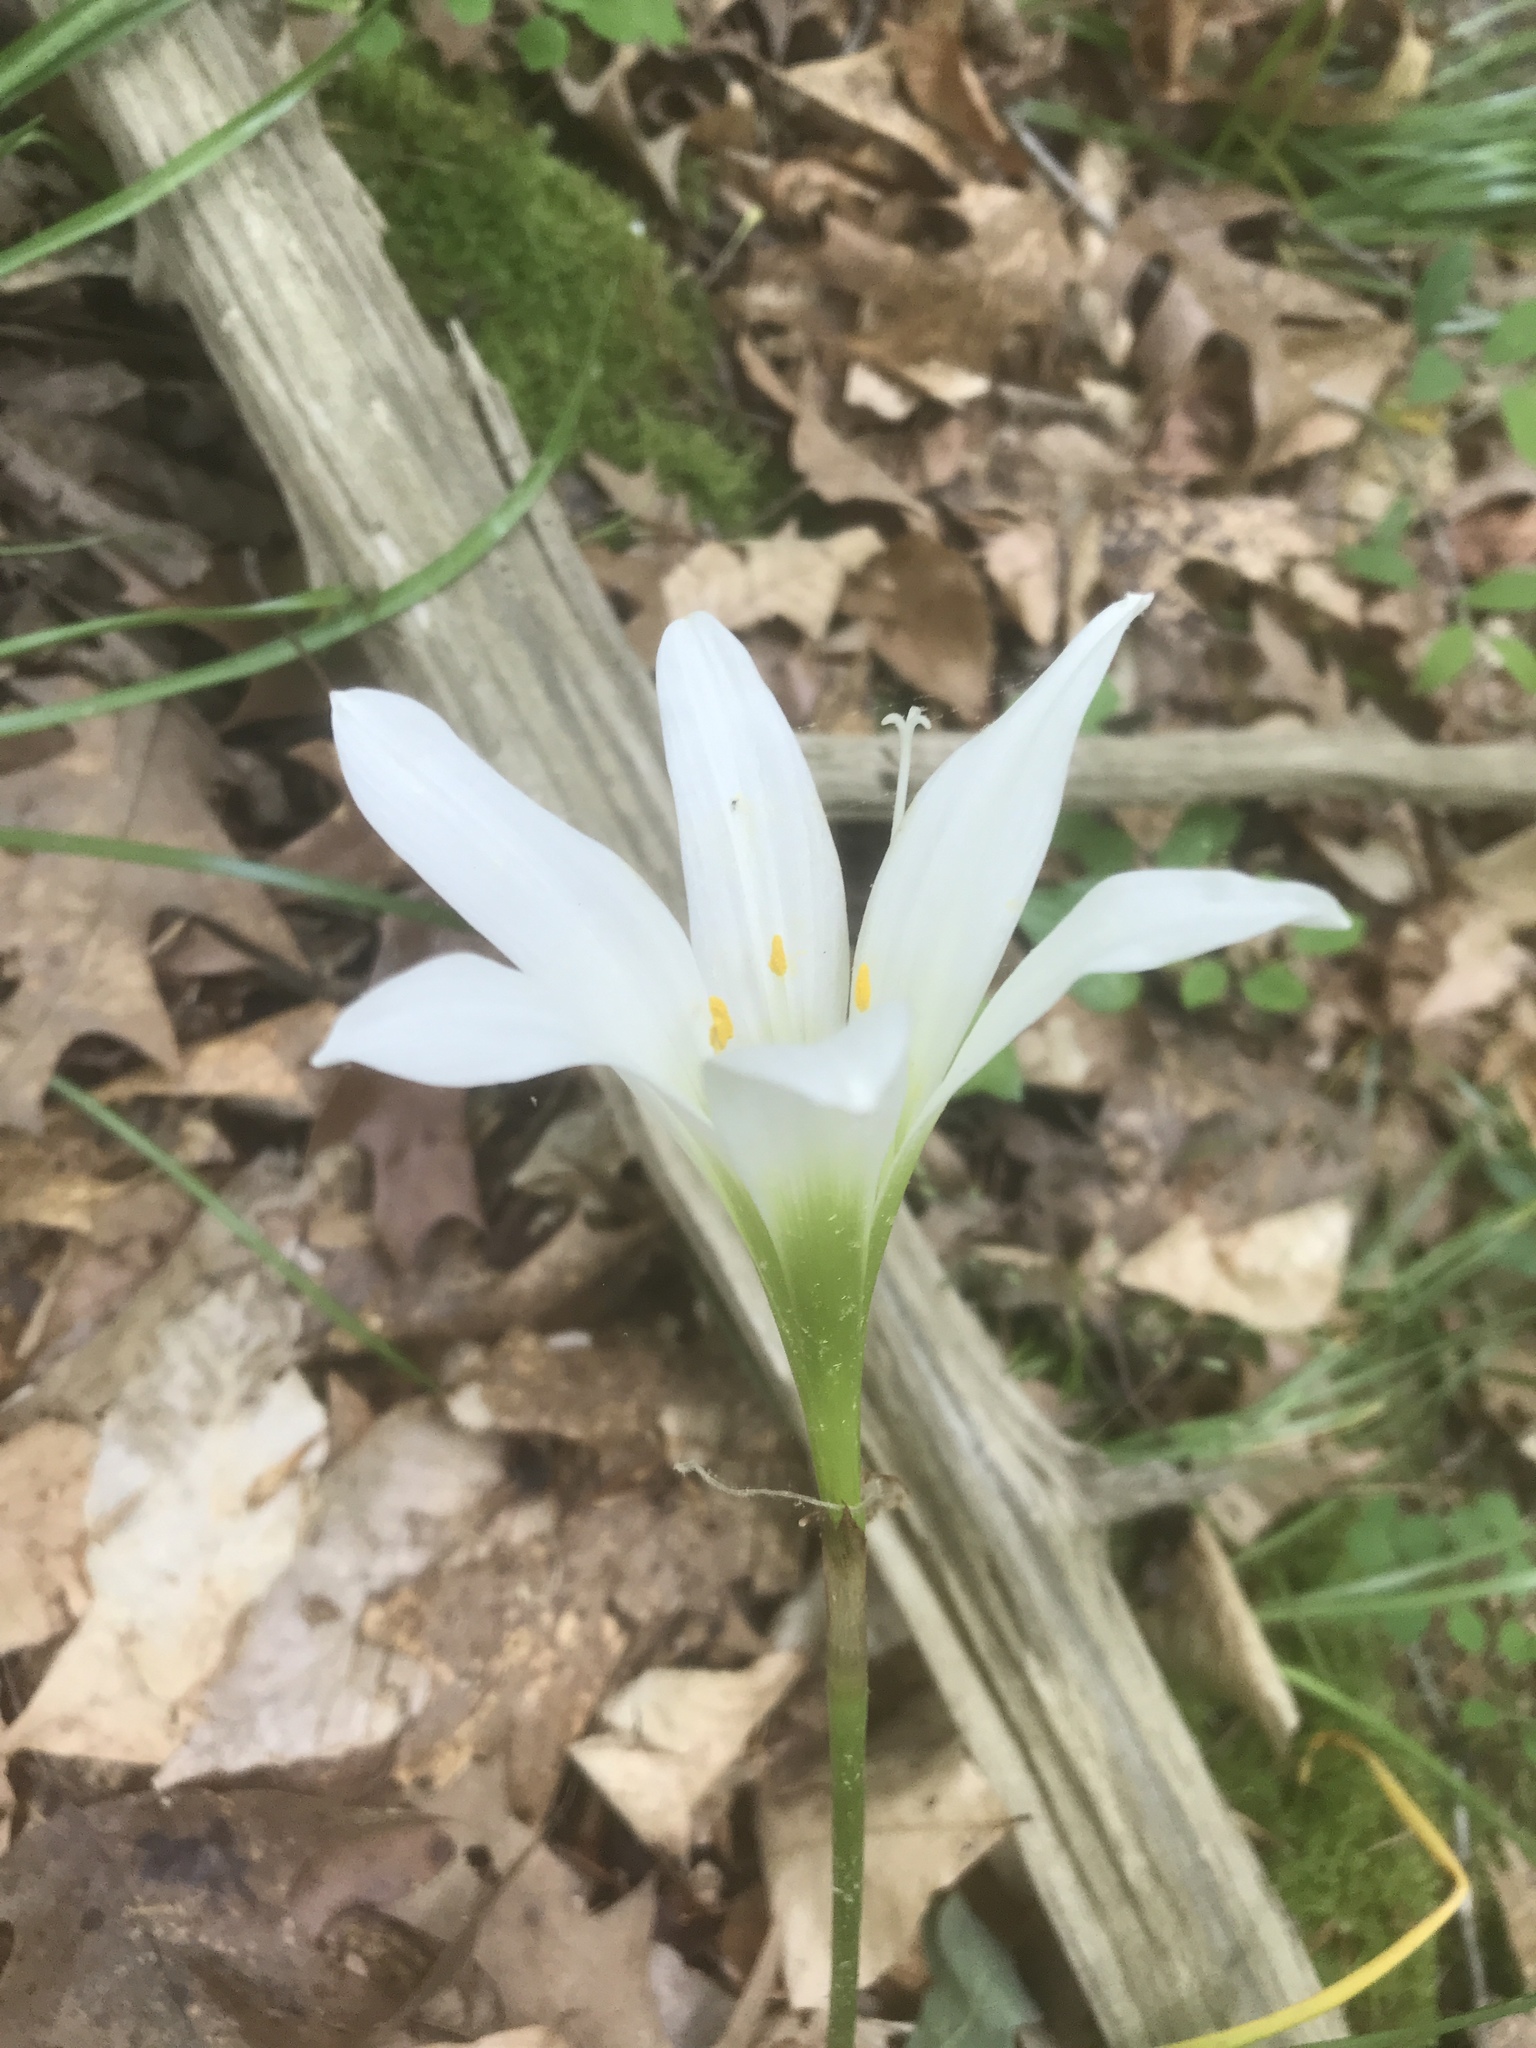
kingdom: Plantae
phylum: Tracheophyta
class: Liliopsida
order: Asparagales
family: Amaryllidaceae
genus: Zephyranthes
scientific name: Zephyranthes atamasco
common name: Atamasco lily
